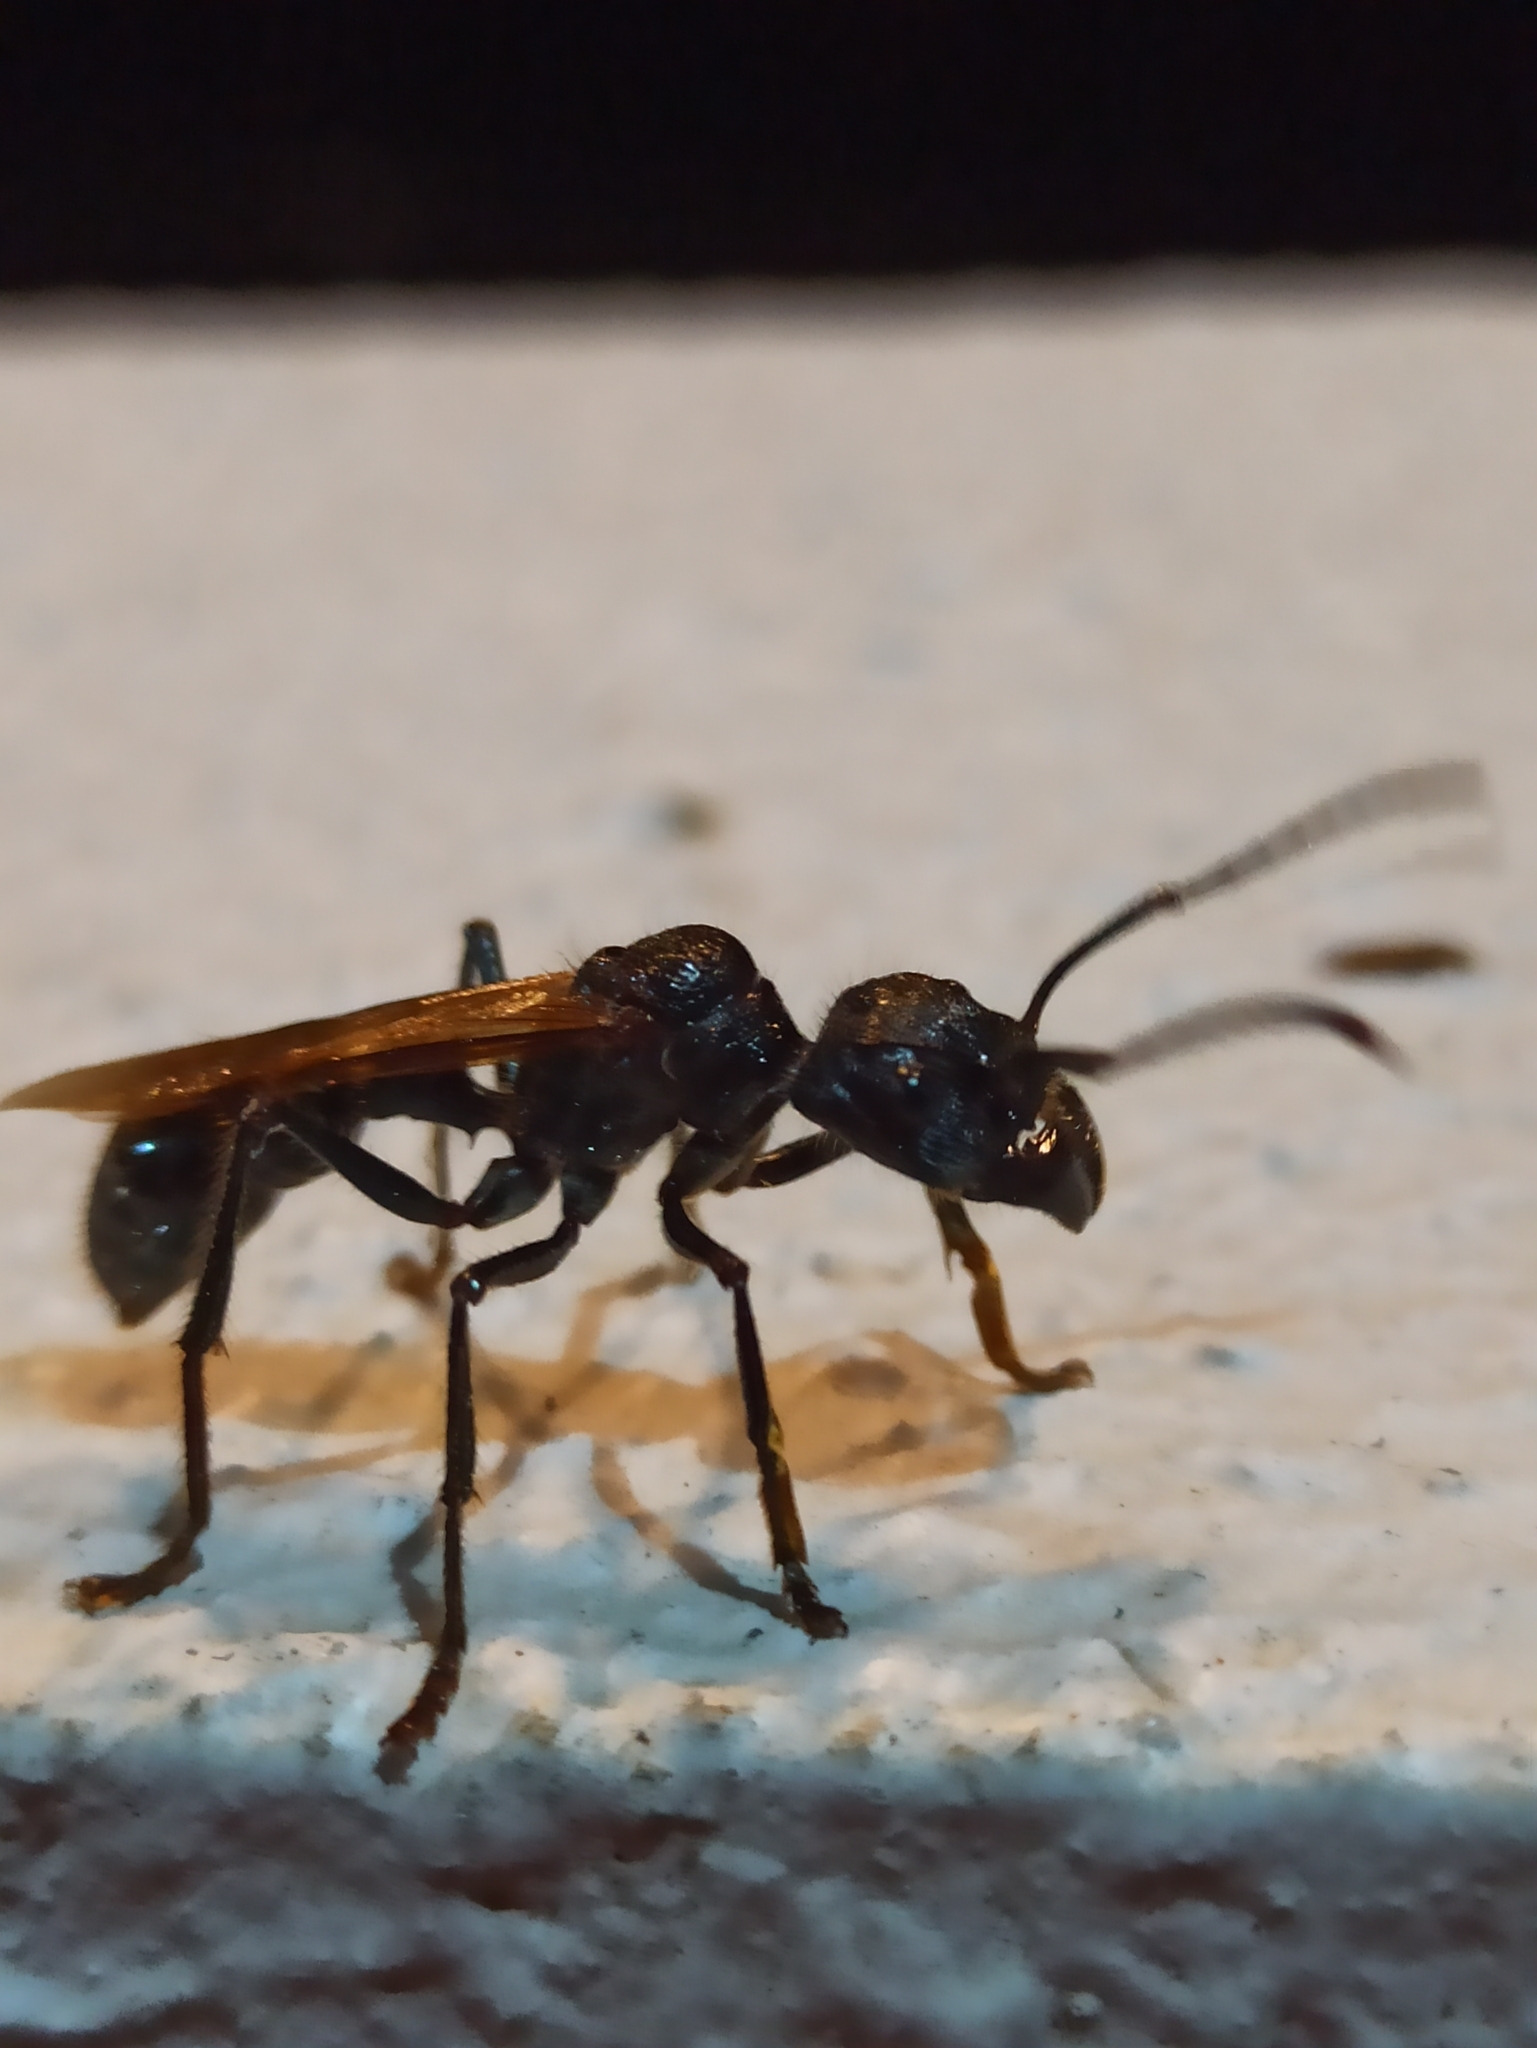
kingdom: Animalia
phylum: Arthropoda
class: Insecta
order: Hymenoptera
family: Formicidae
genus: Paraponera
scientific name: Paraponera clavata
